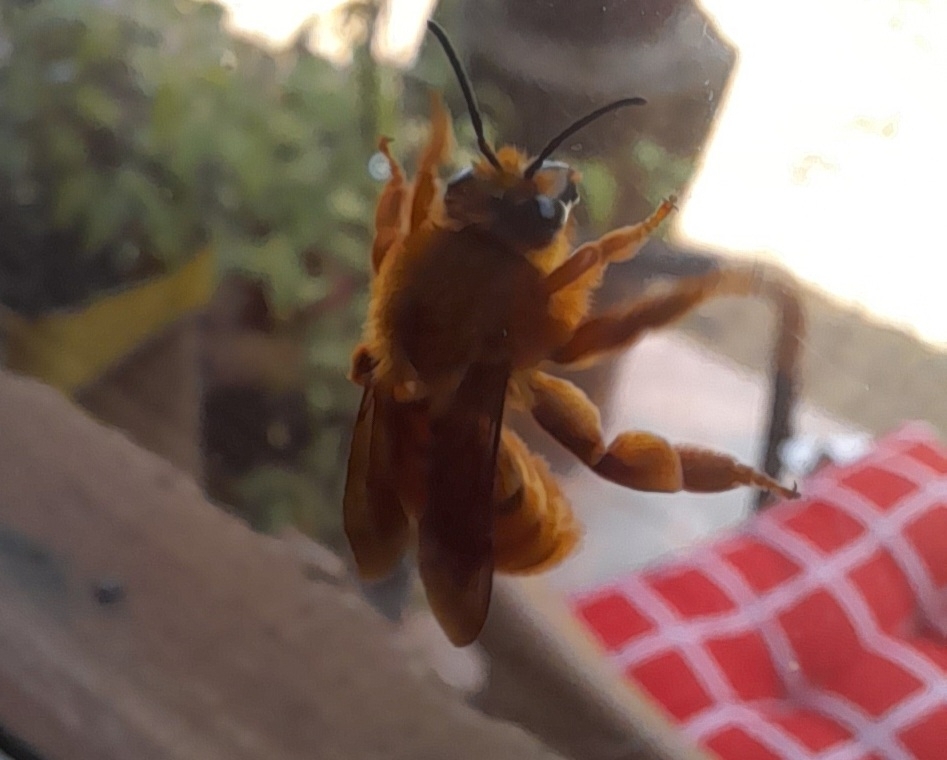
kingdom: Animalia
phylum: Arthropoda
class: Insecta
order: Hymenoptera
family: Colletidae
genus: Diphaglossa
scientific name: Diphaglossa gayi
